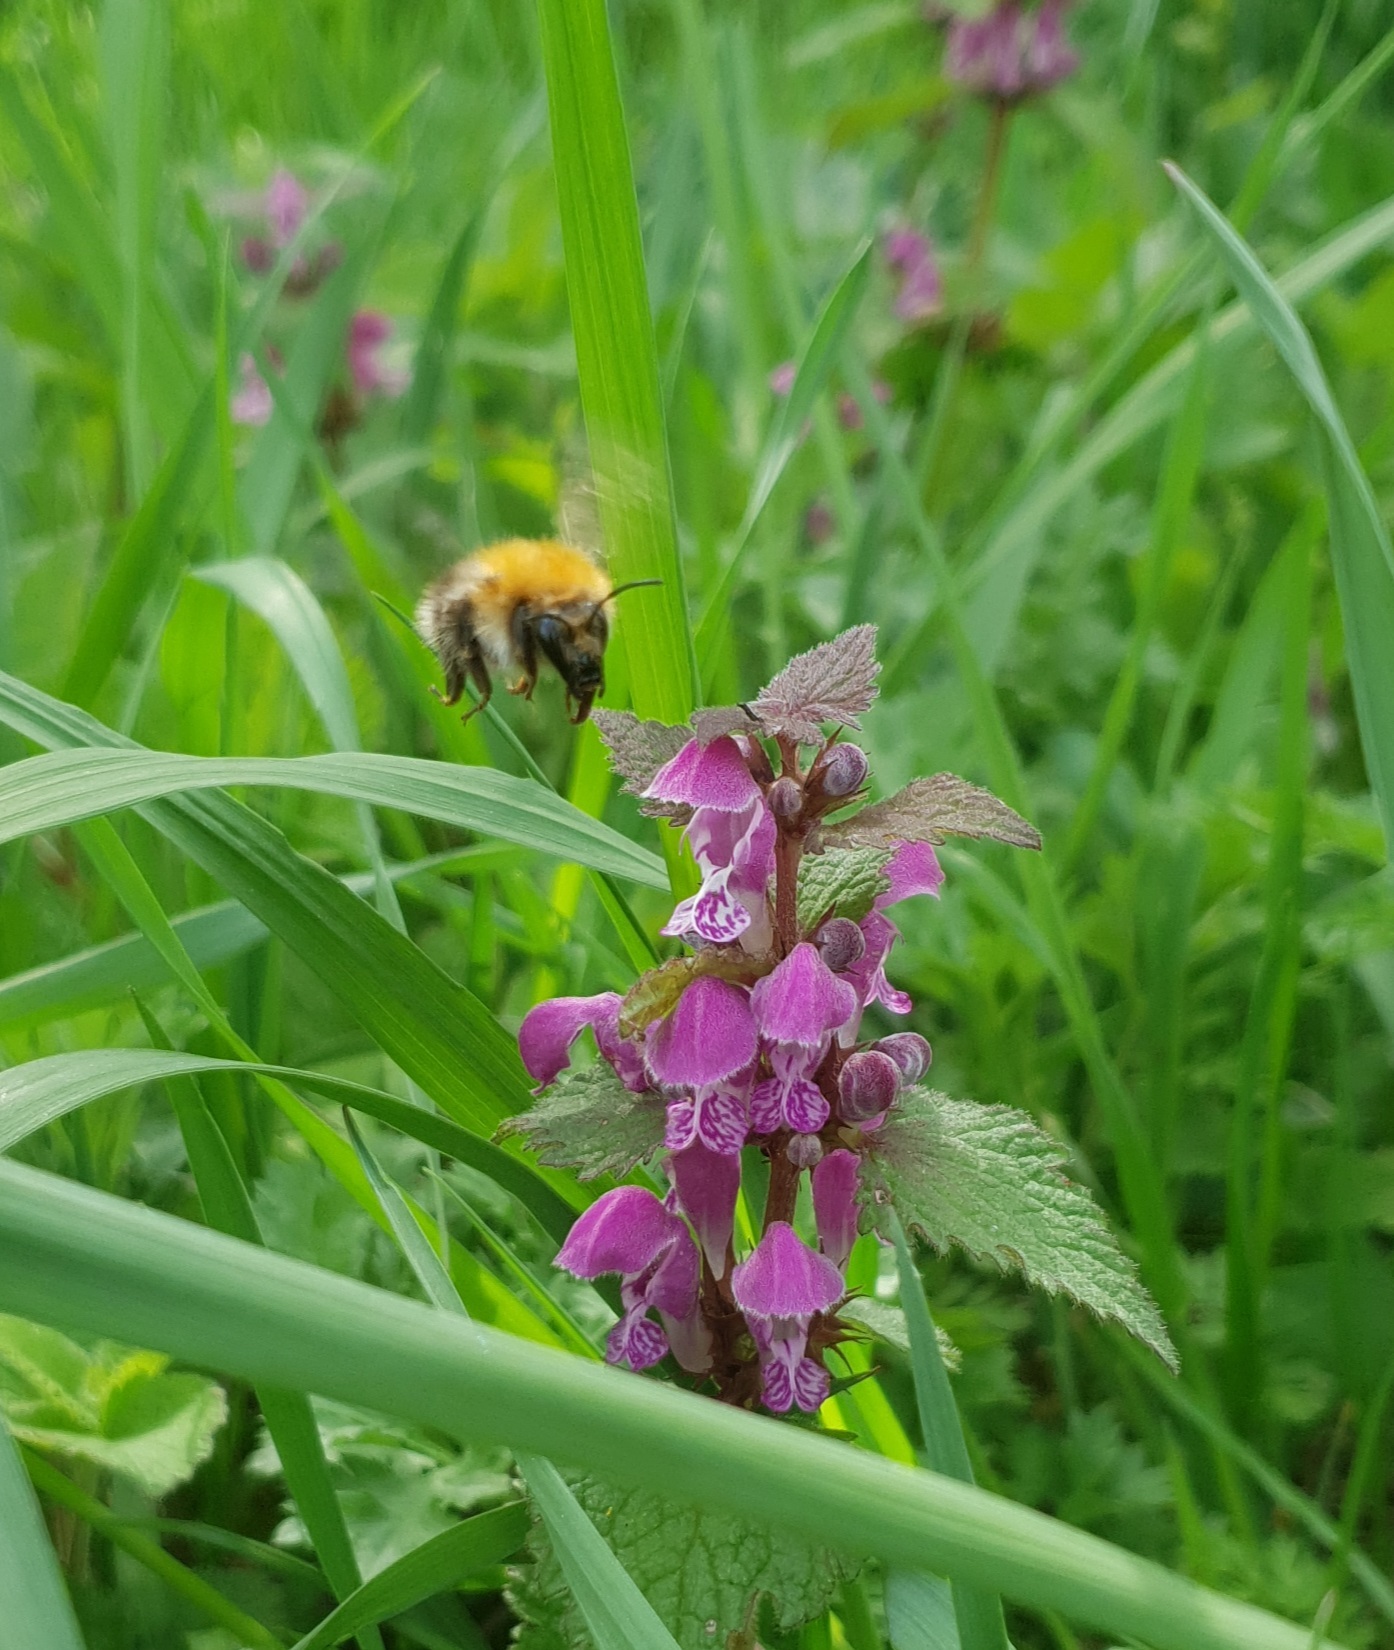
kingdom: Animalia
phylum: Arthropoda
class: Insecta
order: Hymenoptera
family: Apidae
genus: Bombus
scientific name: Bombus pascuorum
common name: Common carder bee
